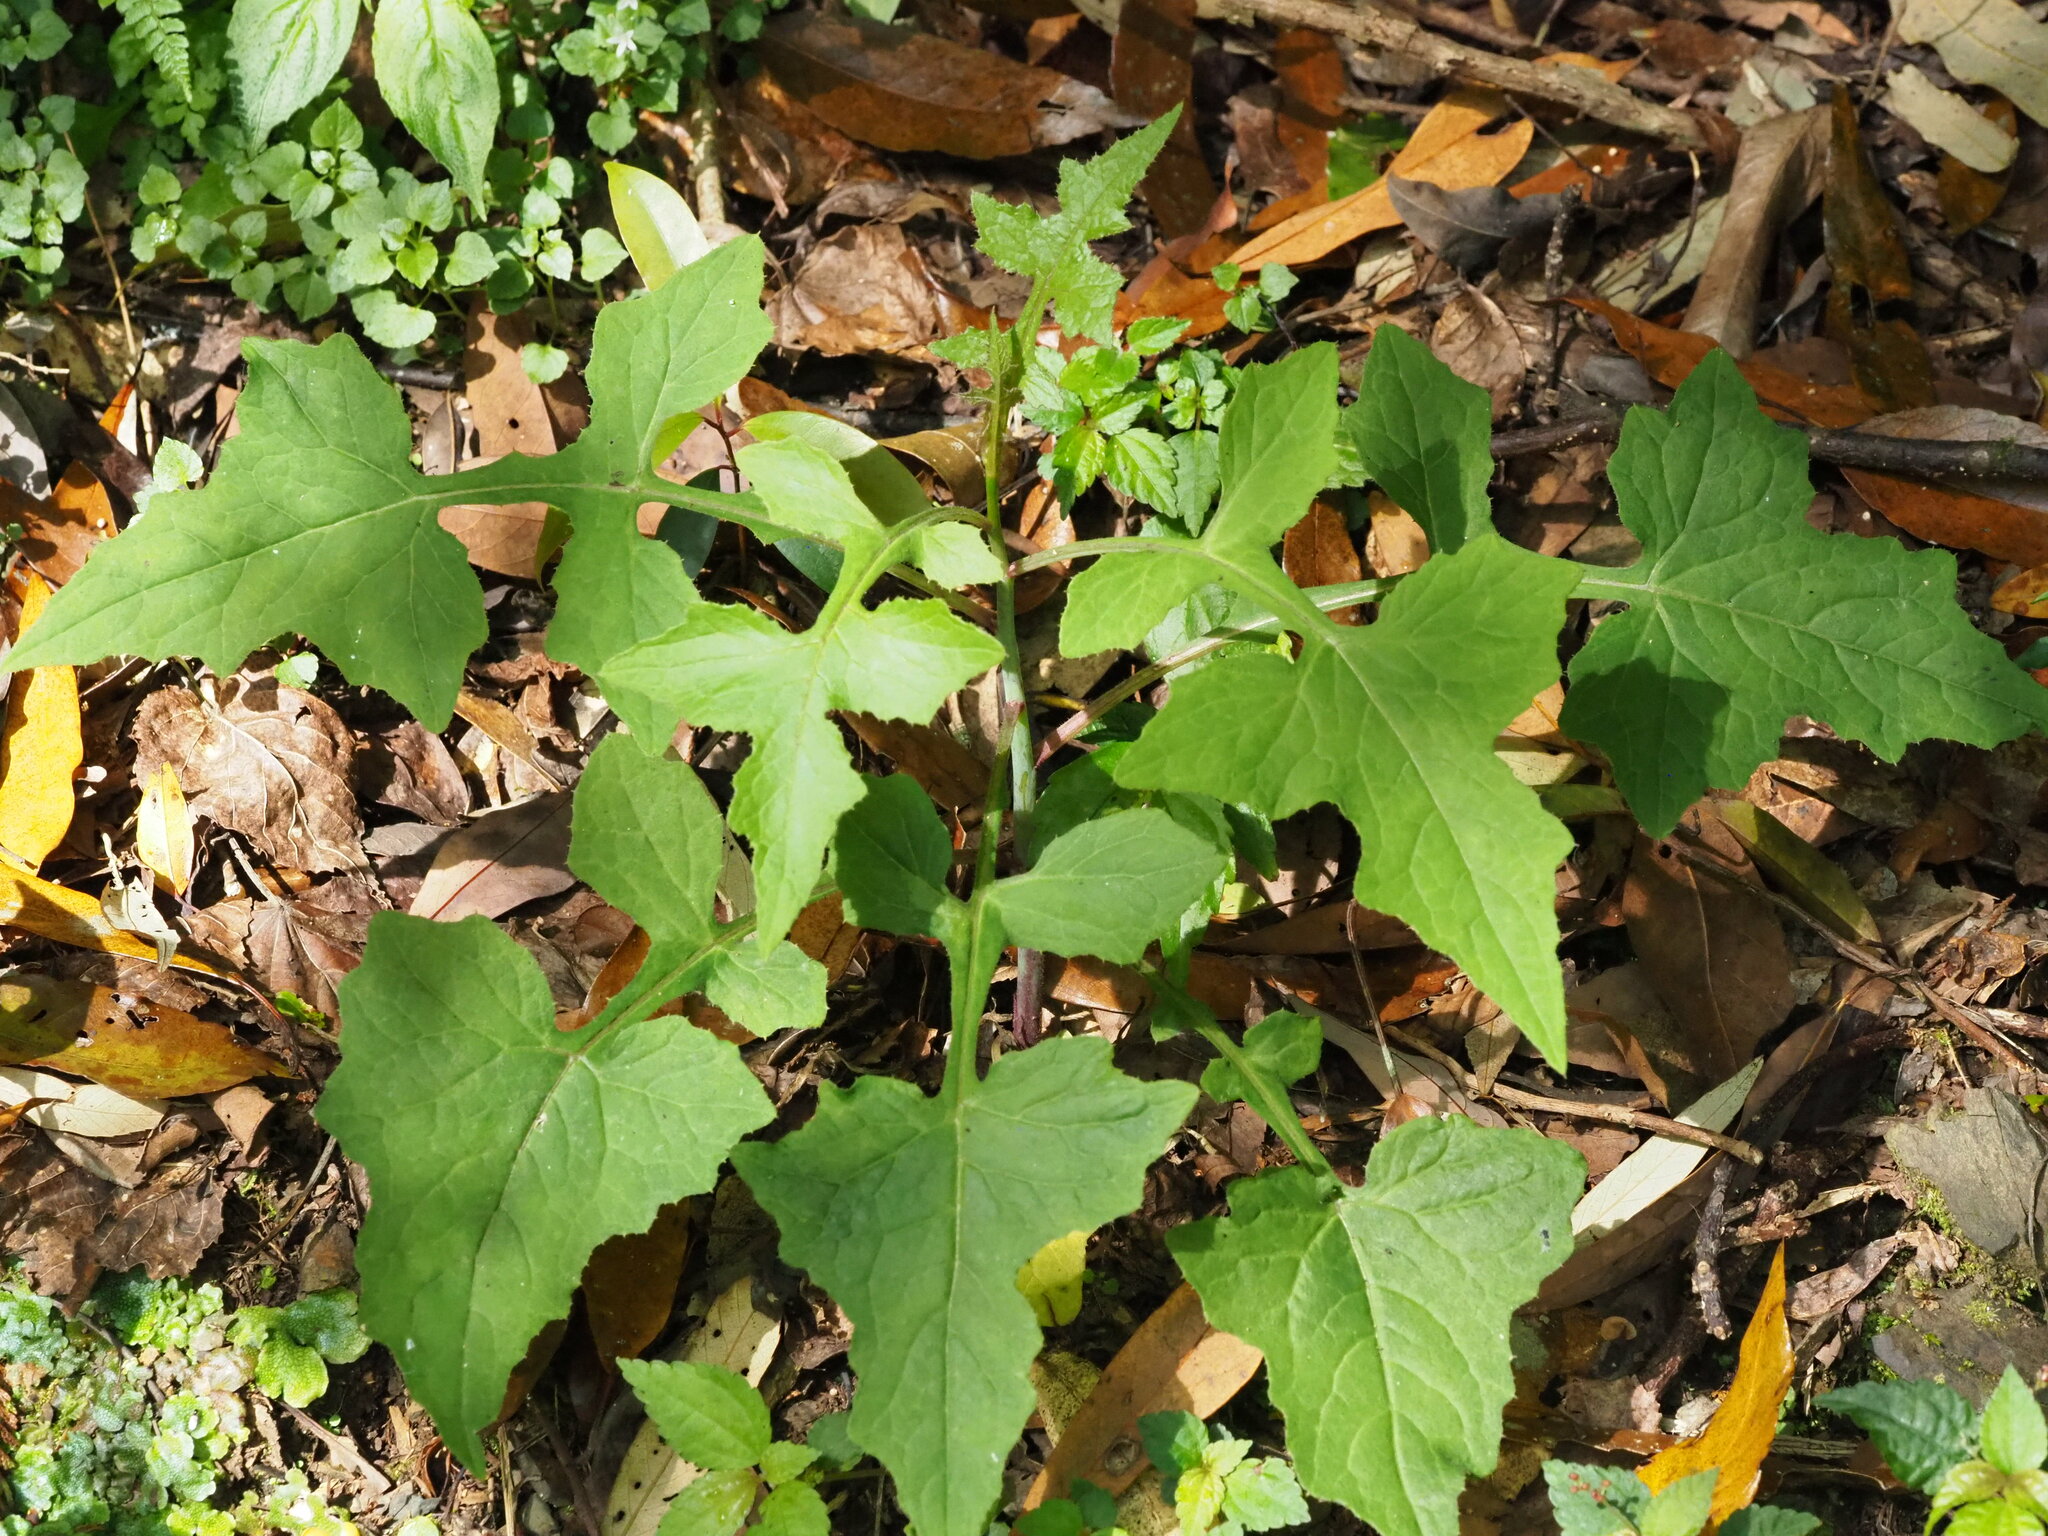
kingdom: Plantae
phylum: Tracheophyta
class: Magnoliopsida
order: Asterales
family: Asteraceae
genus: Paraprenanthes
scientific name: Paraprenanthes sororia
